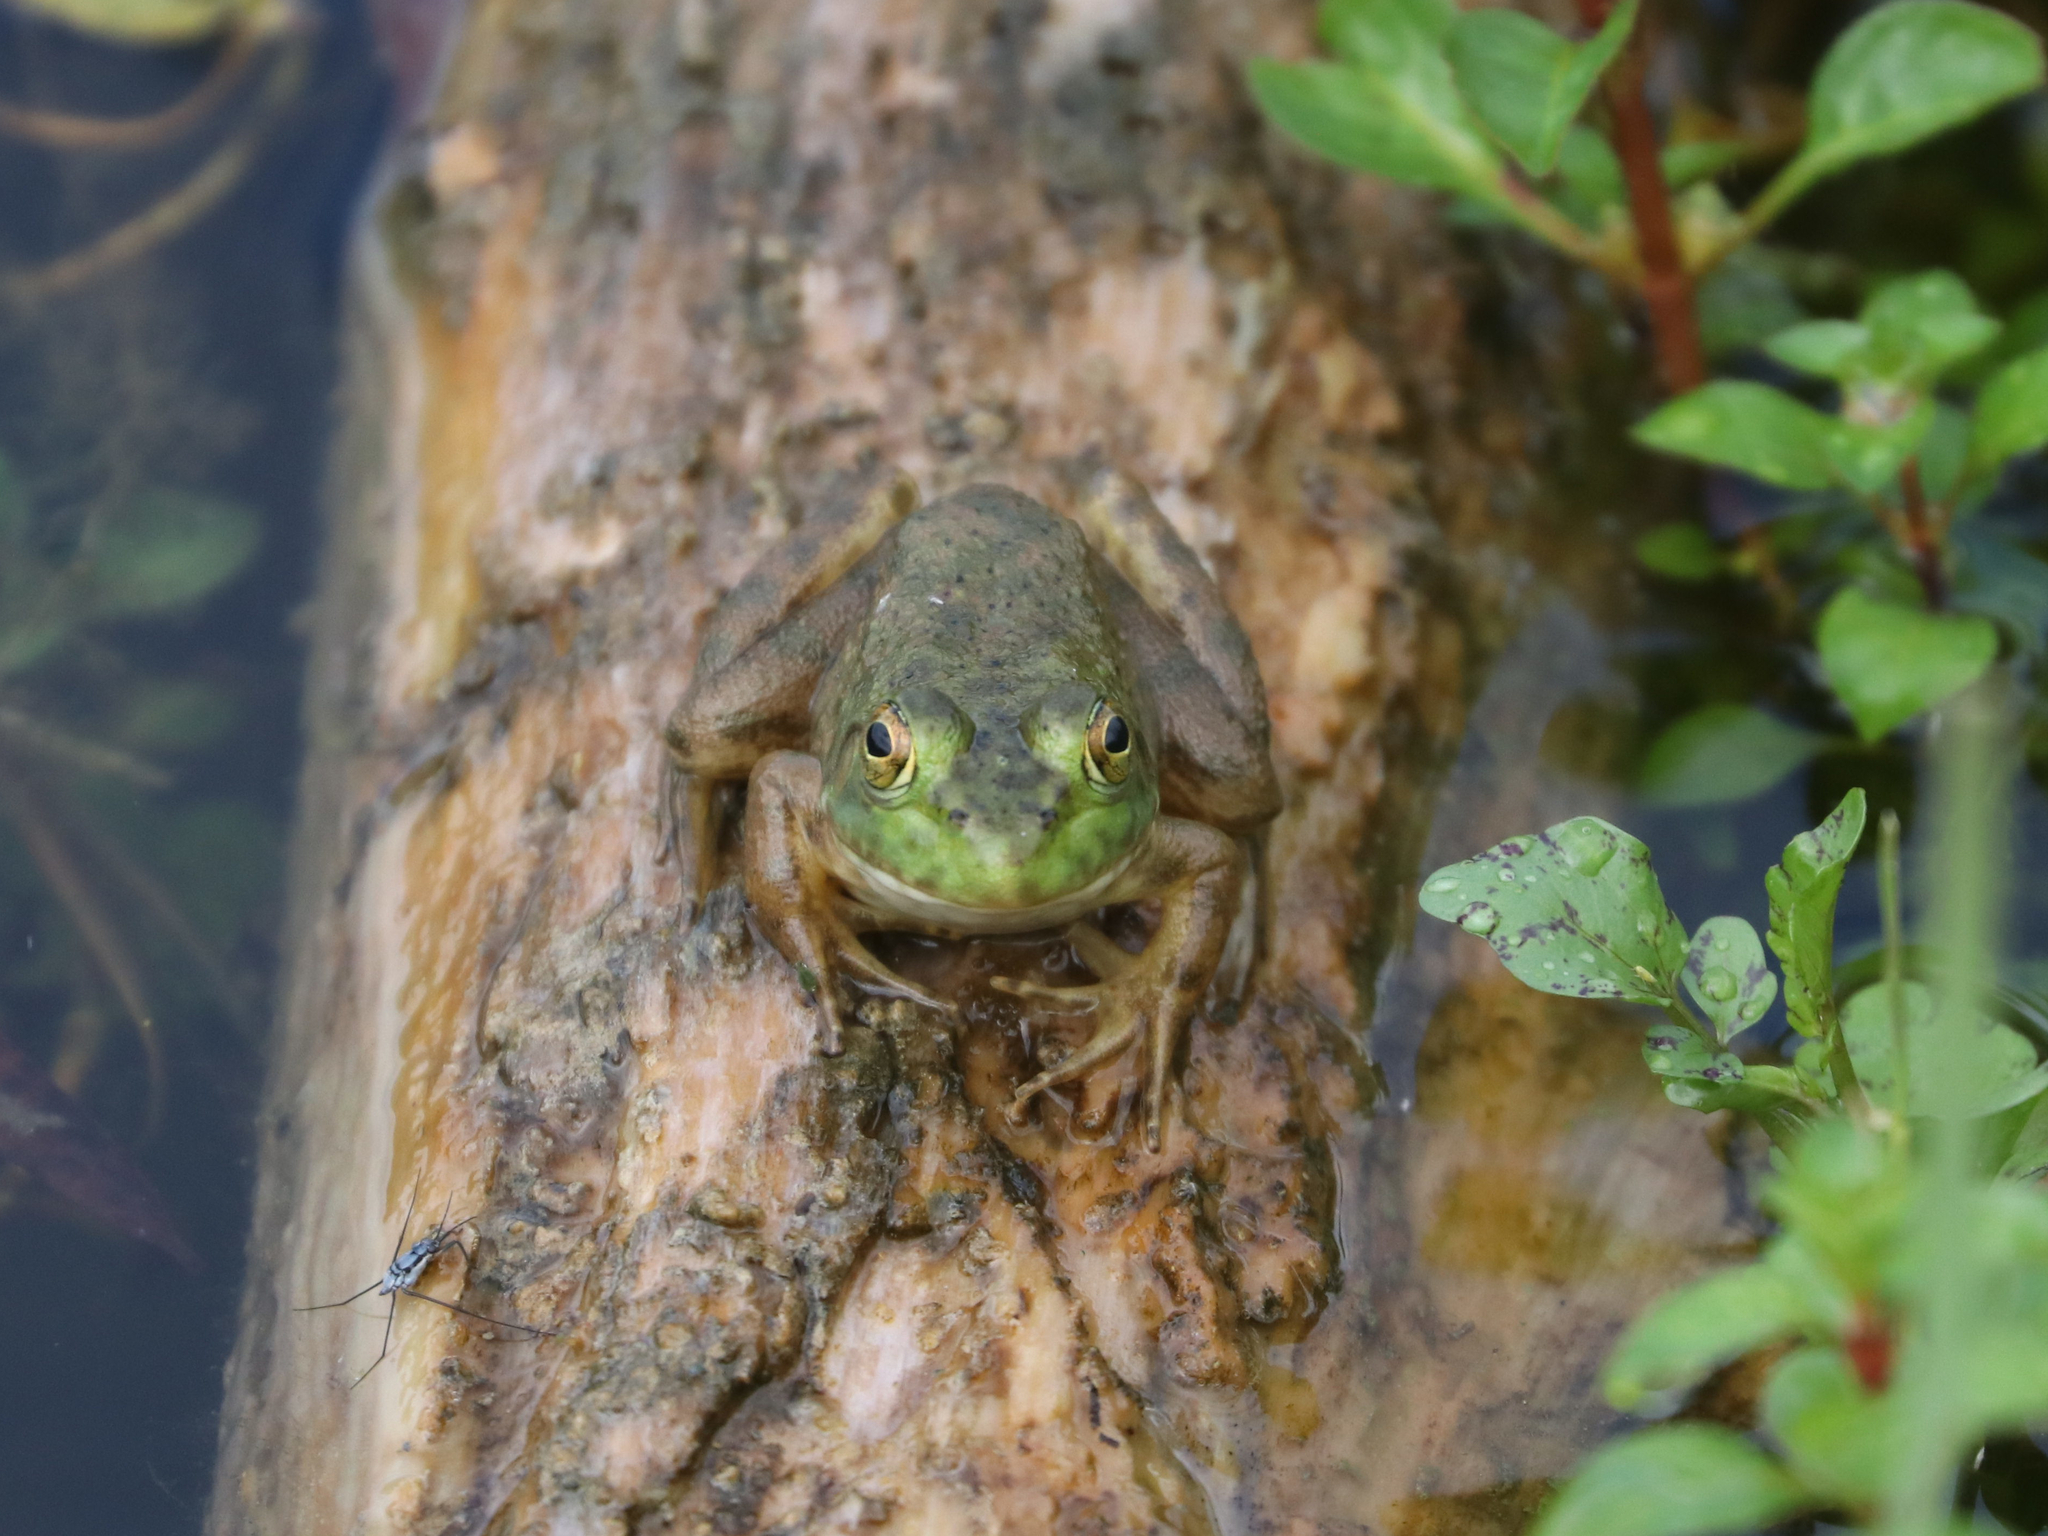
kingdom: Animalia
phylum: Chordata
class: Amphibia
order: Anura
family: Ranidae
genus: Lithobates
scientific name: Lithobates catesbeianus
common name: American bullfrog
